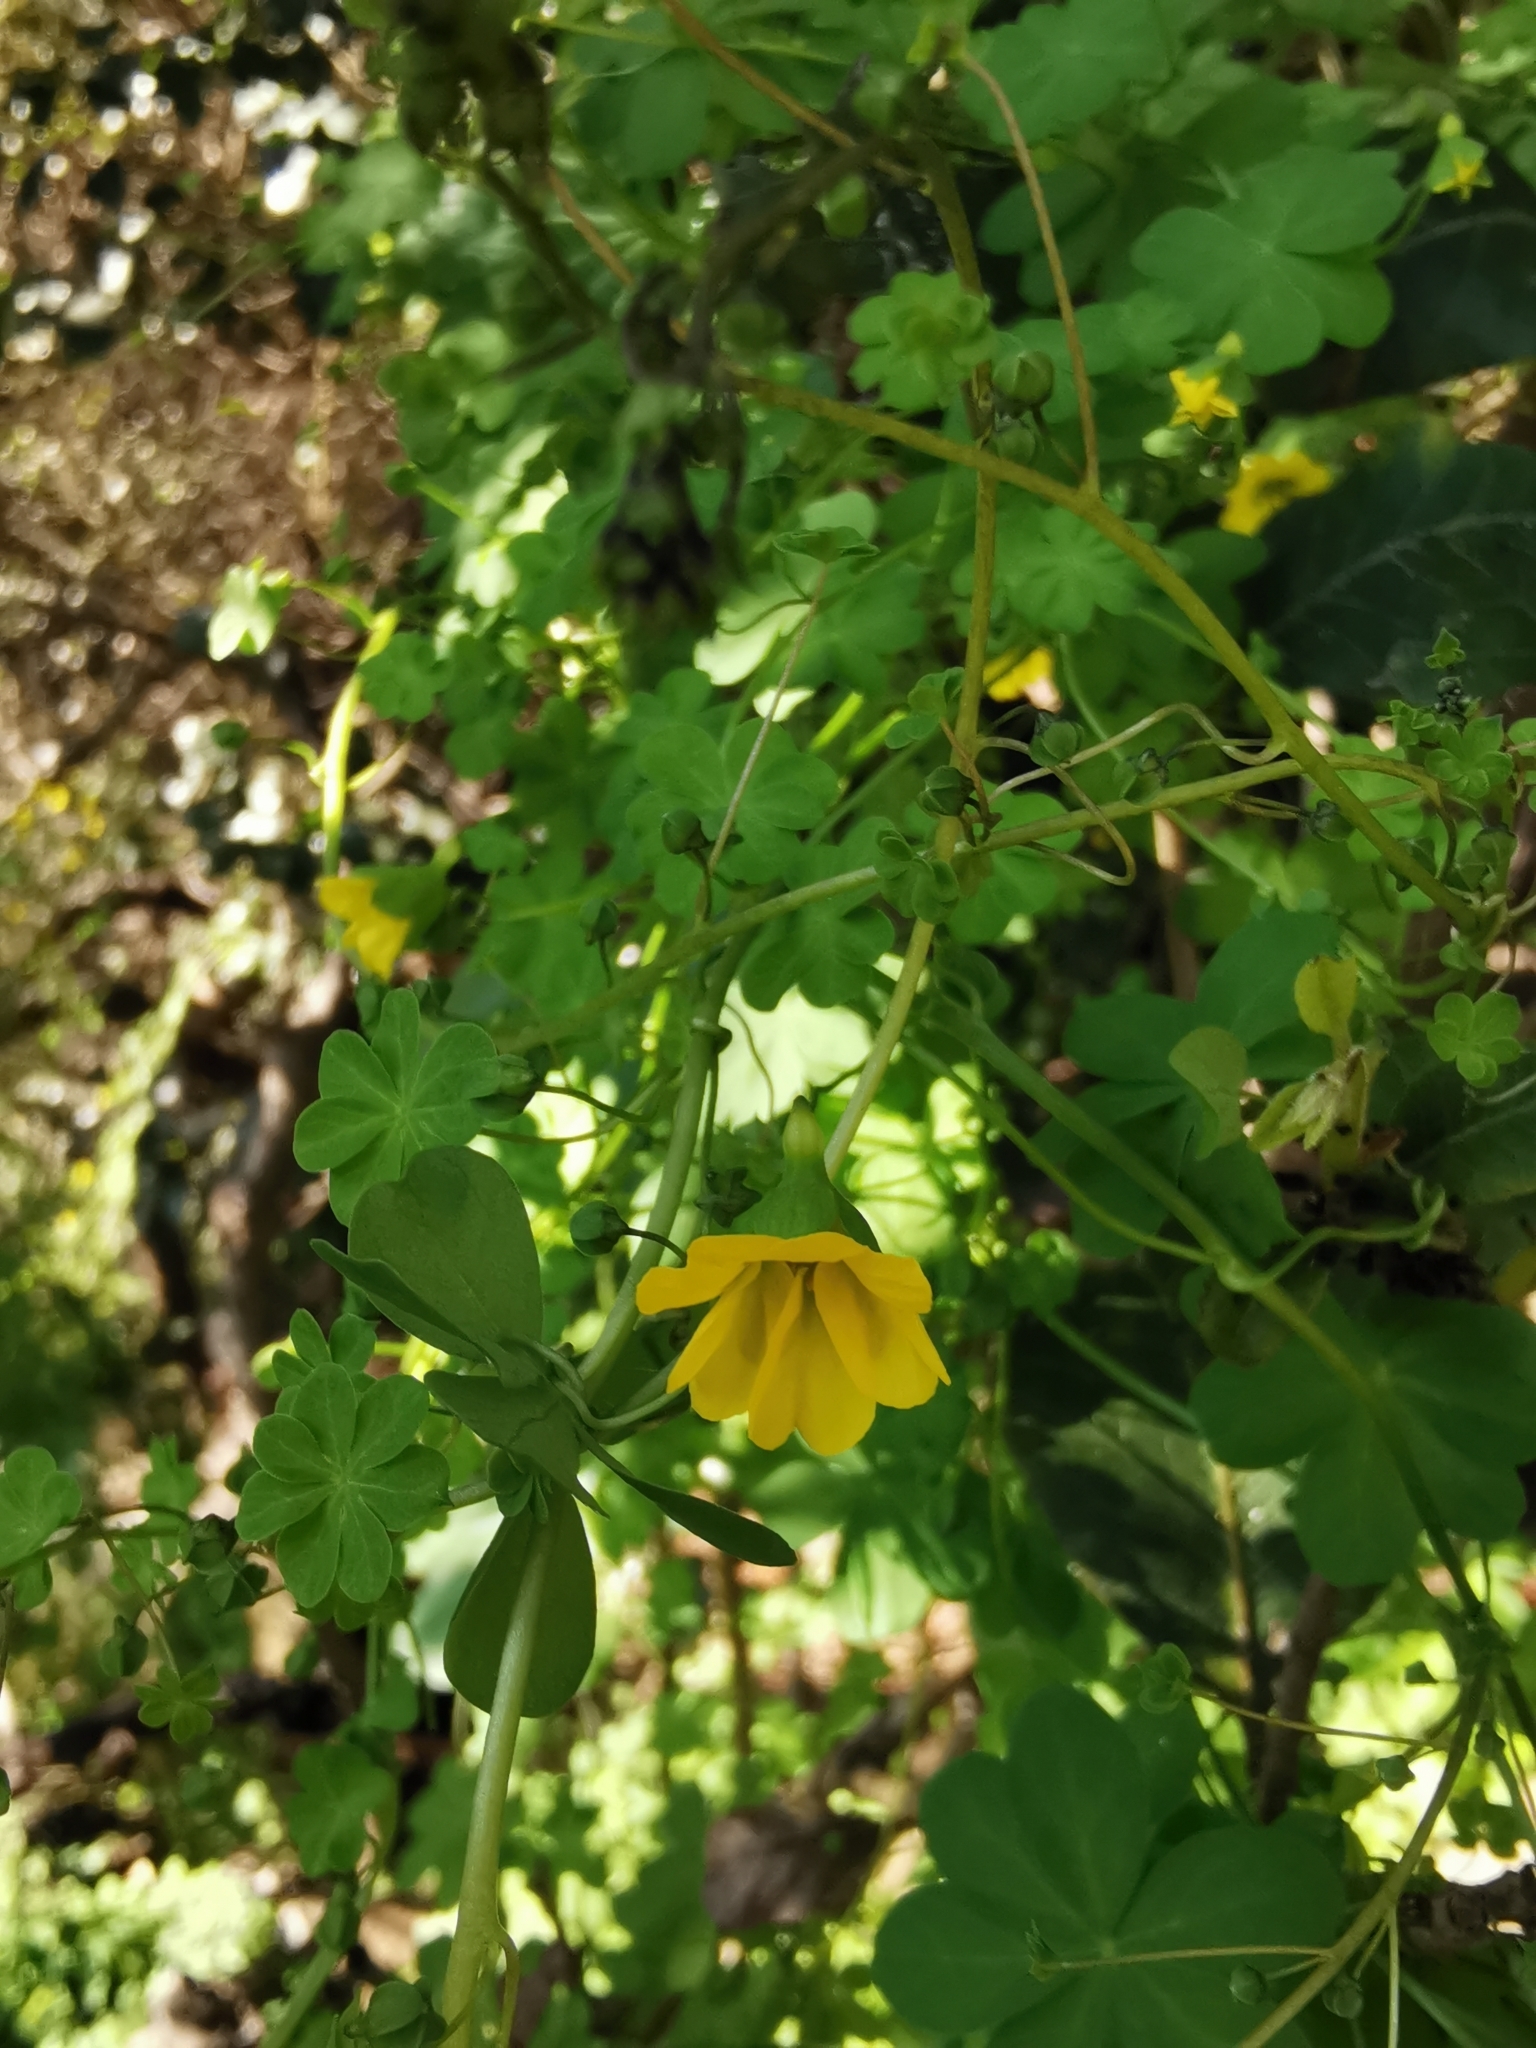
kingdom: Plantae
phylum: Tracheophyta
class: Magnoliopsida
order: Brassicales
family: Tropaeolaceae
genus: Tropaeolum
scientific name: Tropaeolum brachyceras
